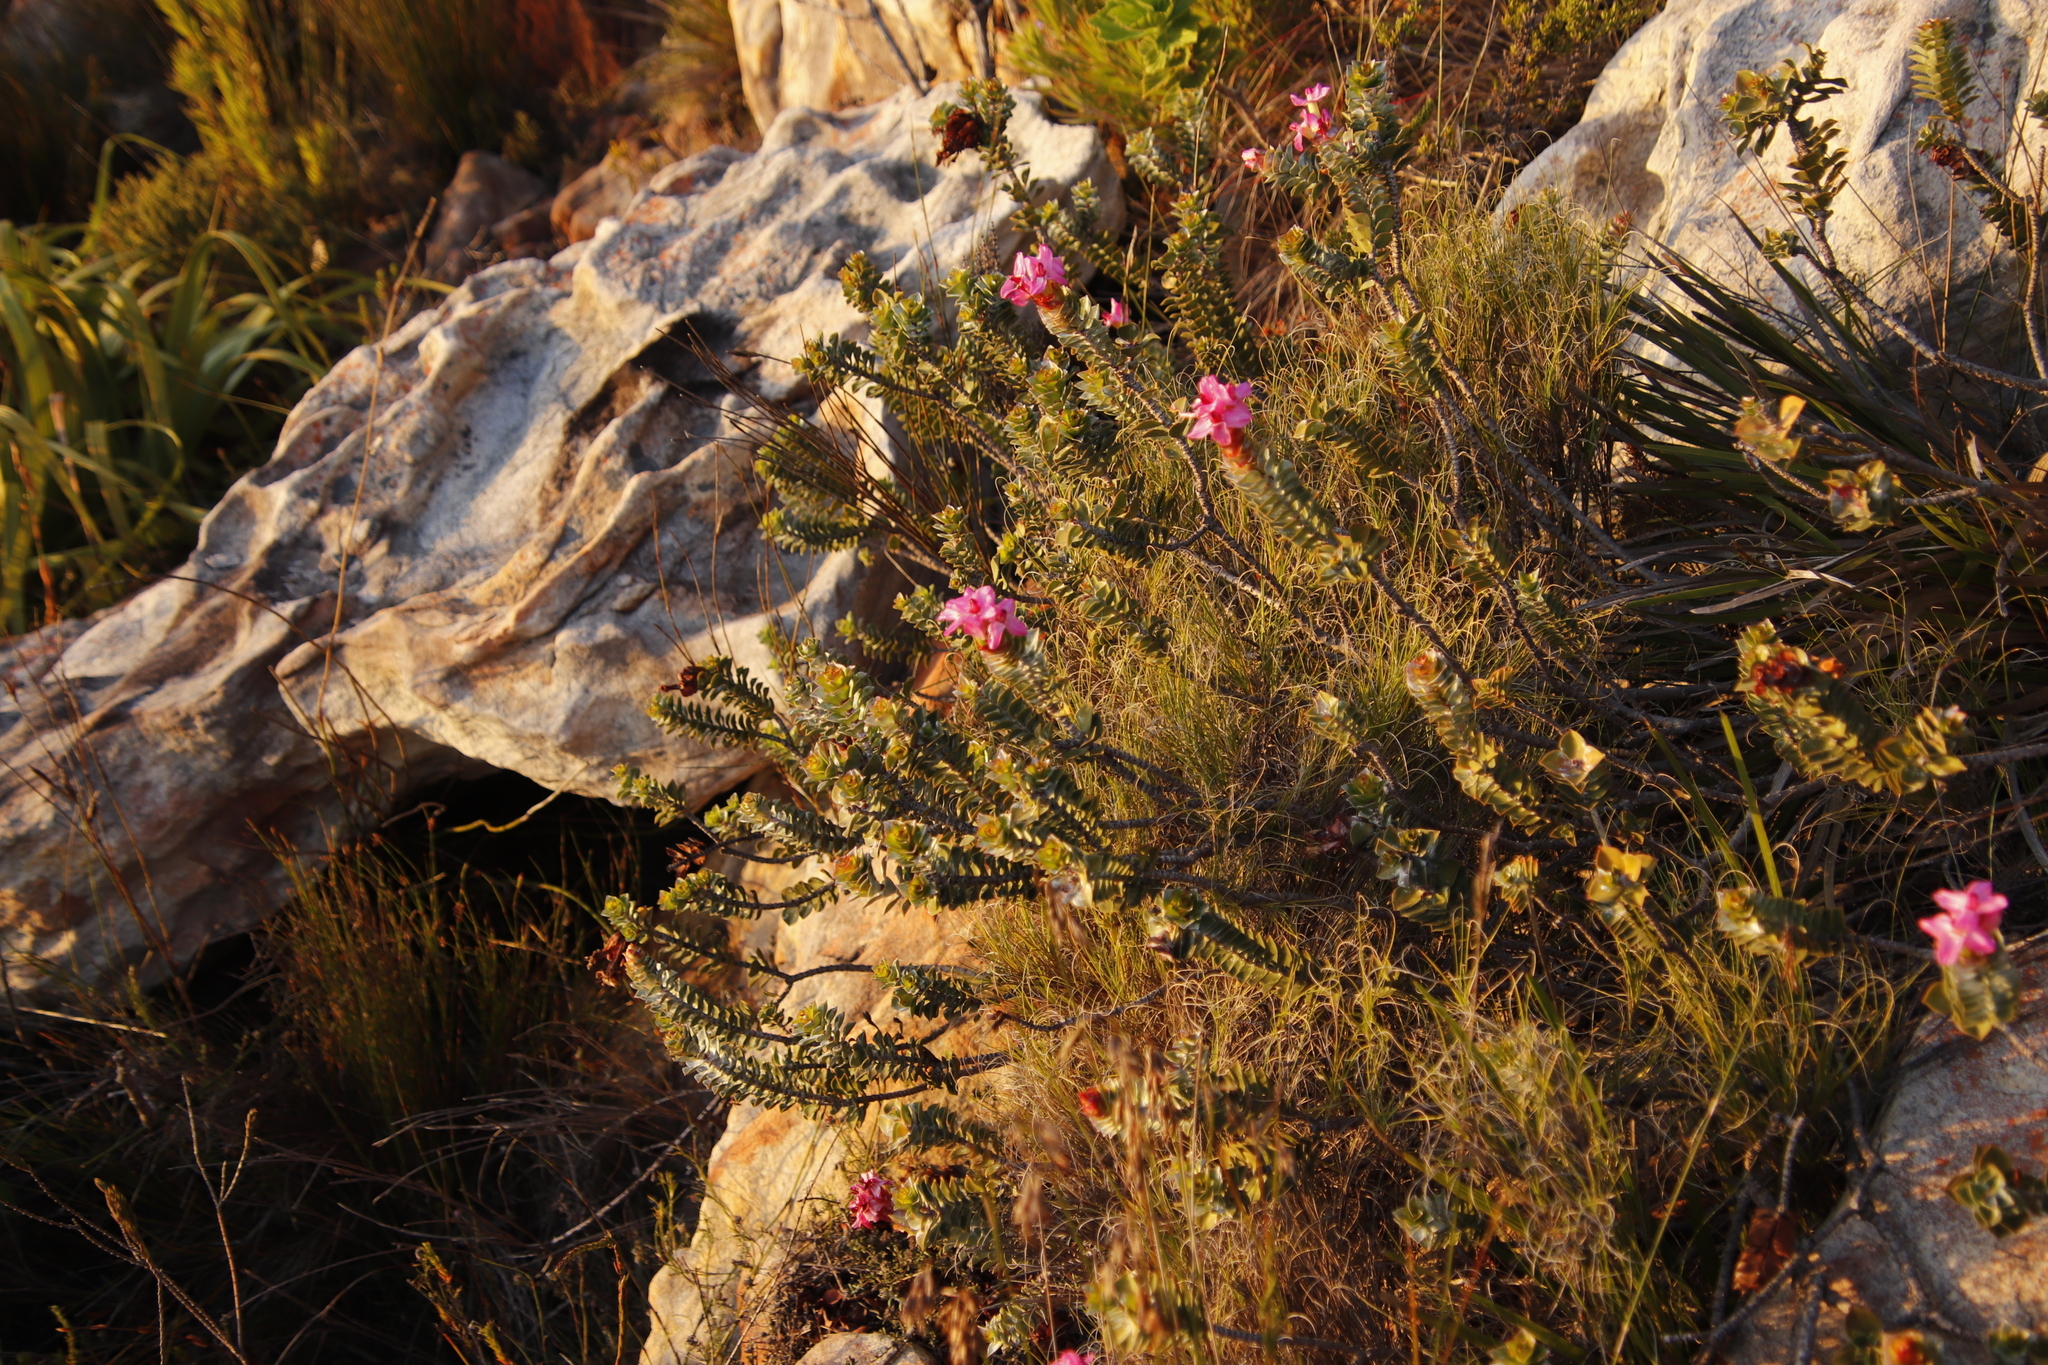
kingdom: Plantae
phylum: Tracheophyta
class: Magnoliopsida
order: Myrtales
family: Penaeaceae
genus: Saltera
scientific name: Saltera sarcocolla
